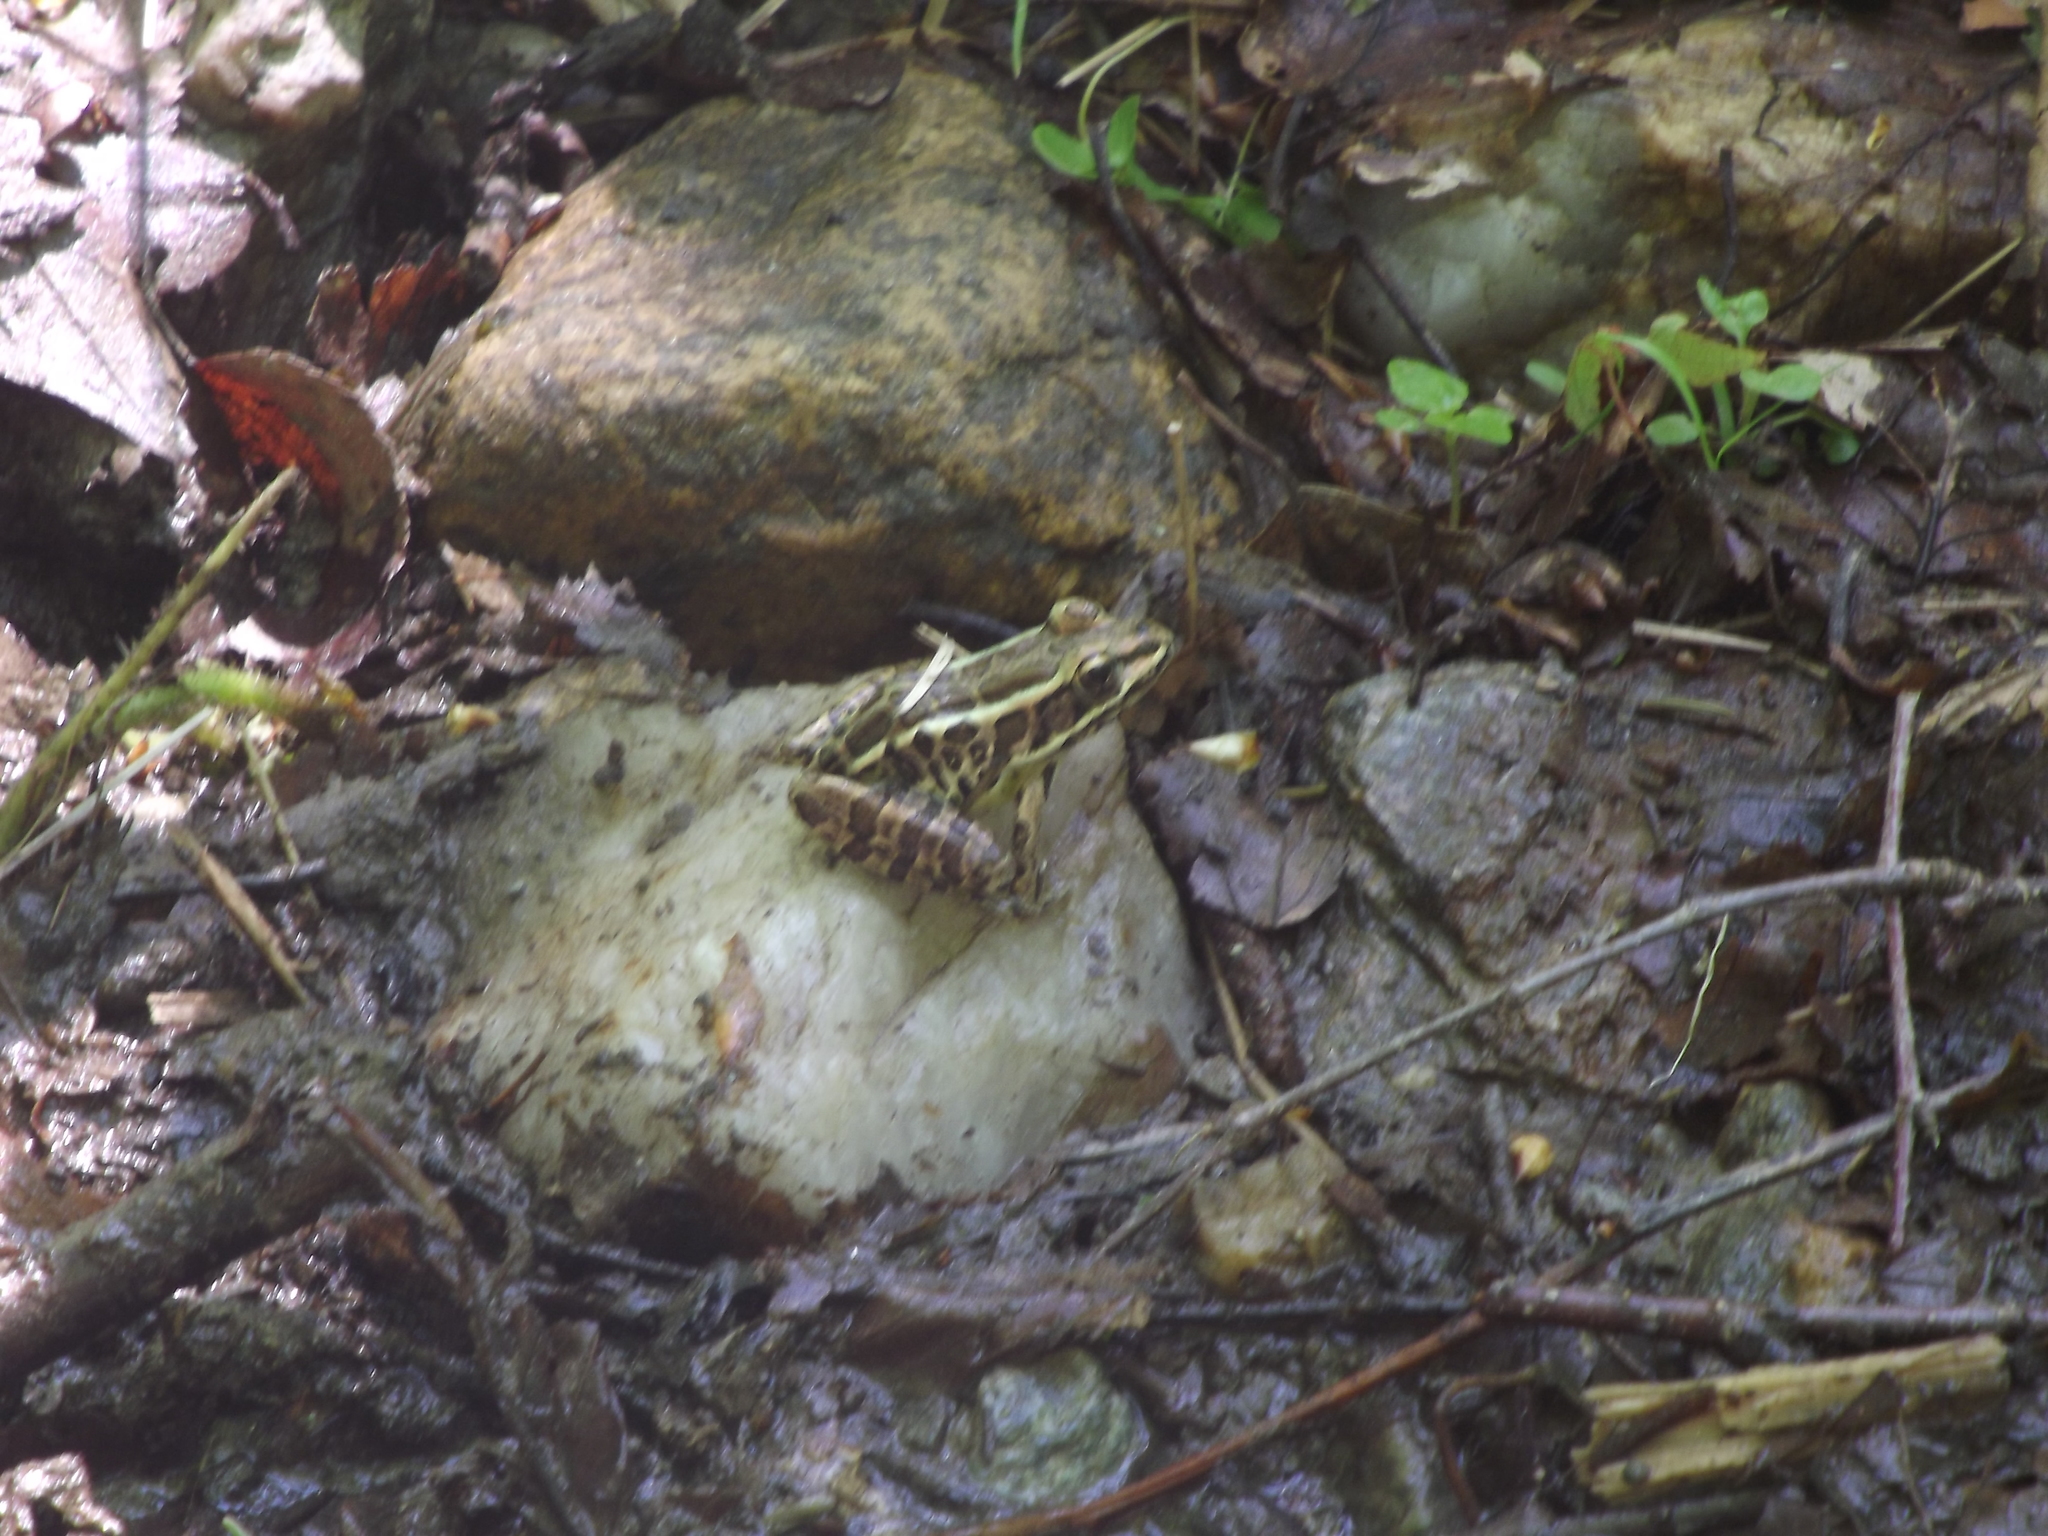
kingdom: Animalia
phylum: Chordata
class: Amphibia
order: Anura
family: Ranidae
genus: Lithobates
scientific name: Lithobates palustris
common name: Pickerel frog
